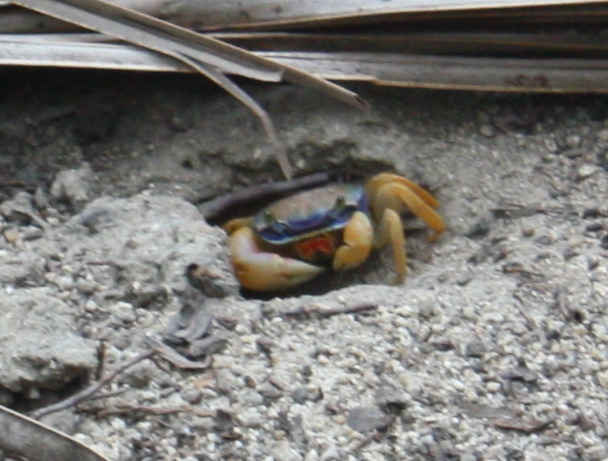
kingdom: Animalia
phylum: Arthropoda
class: Malacostraca
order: Decapoda
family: Gecarcinidae
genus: Cardisoma
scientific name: Cardisoma guanhumi
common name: Great land crab
